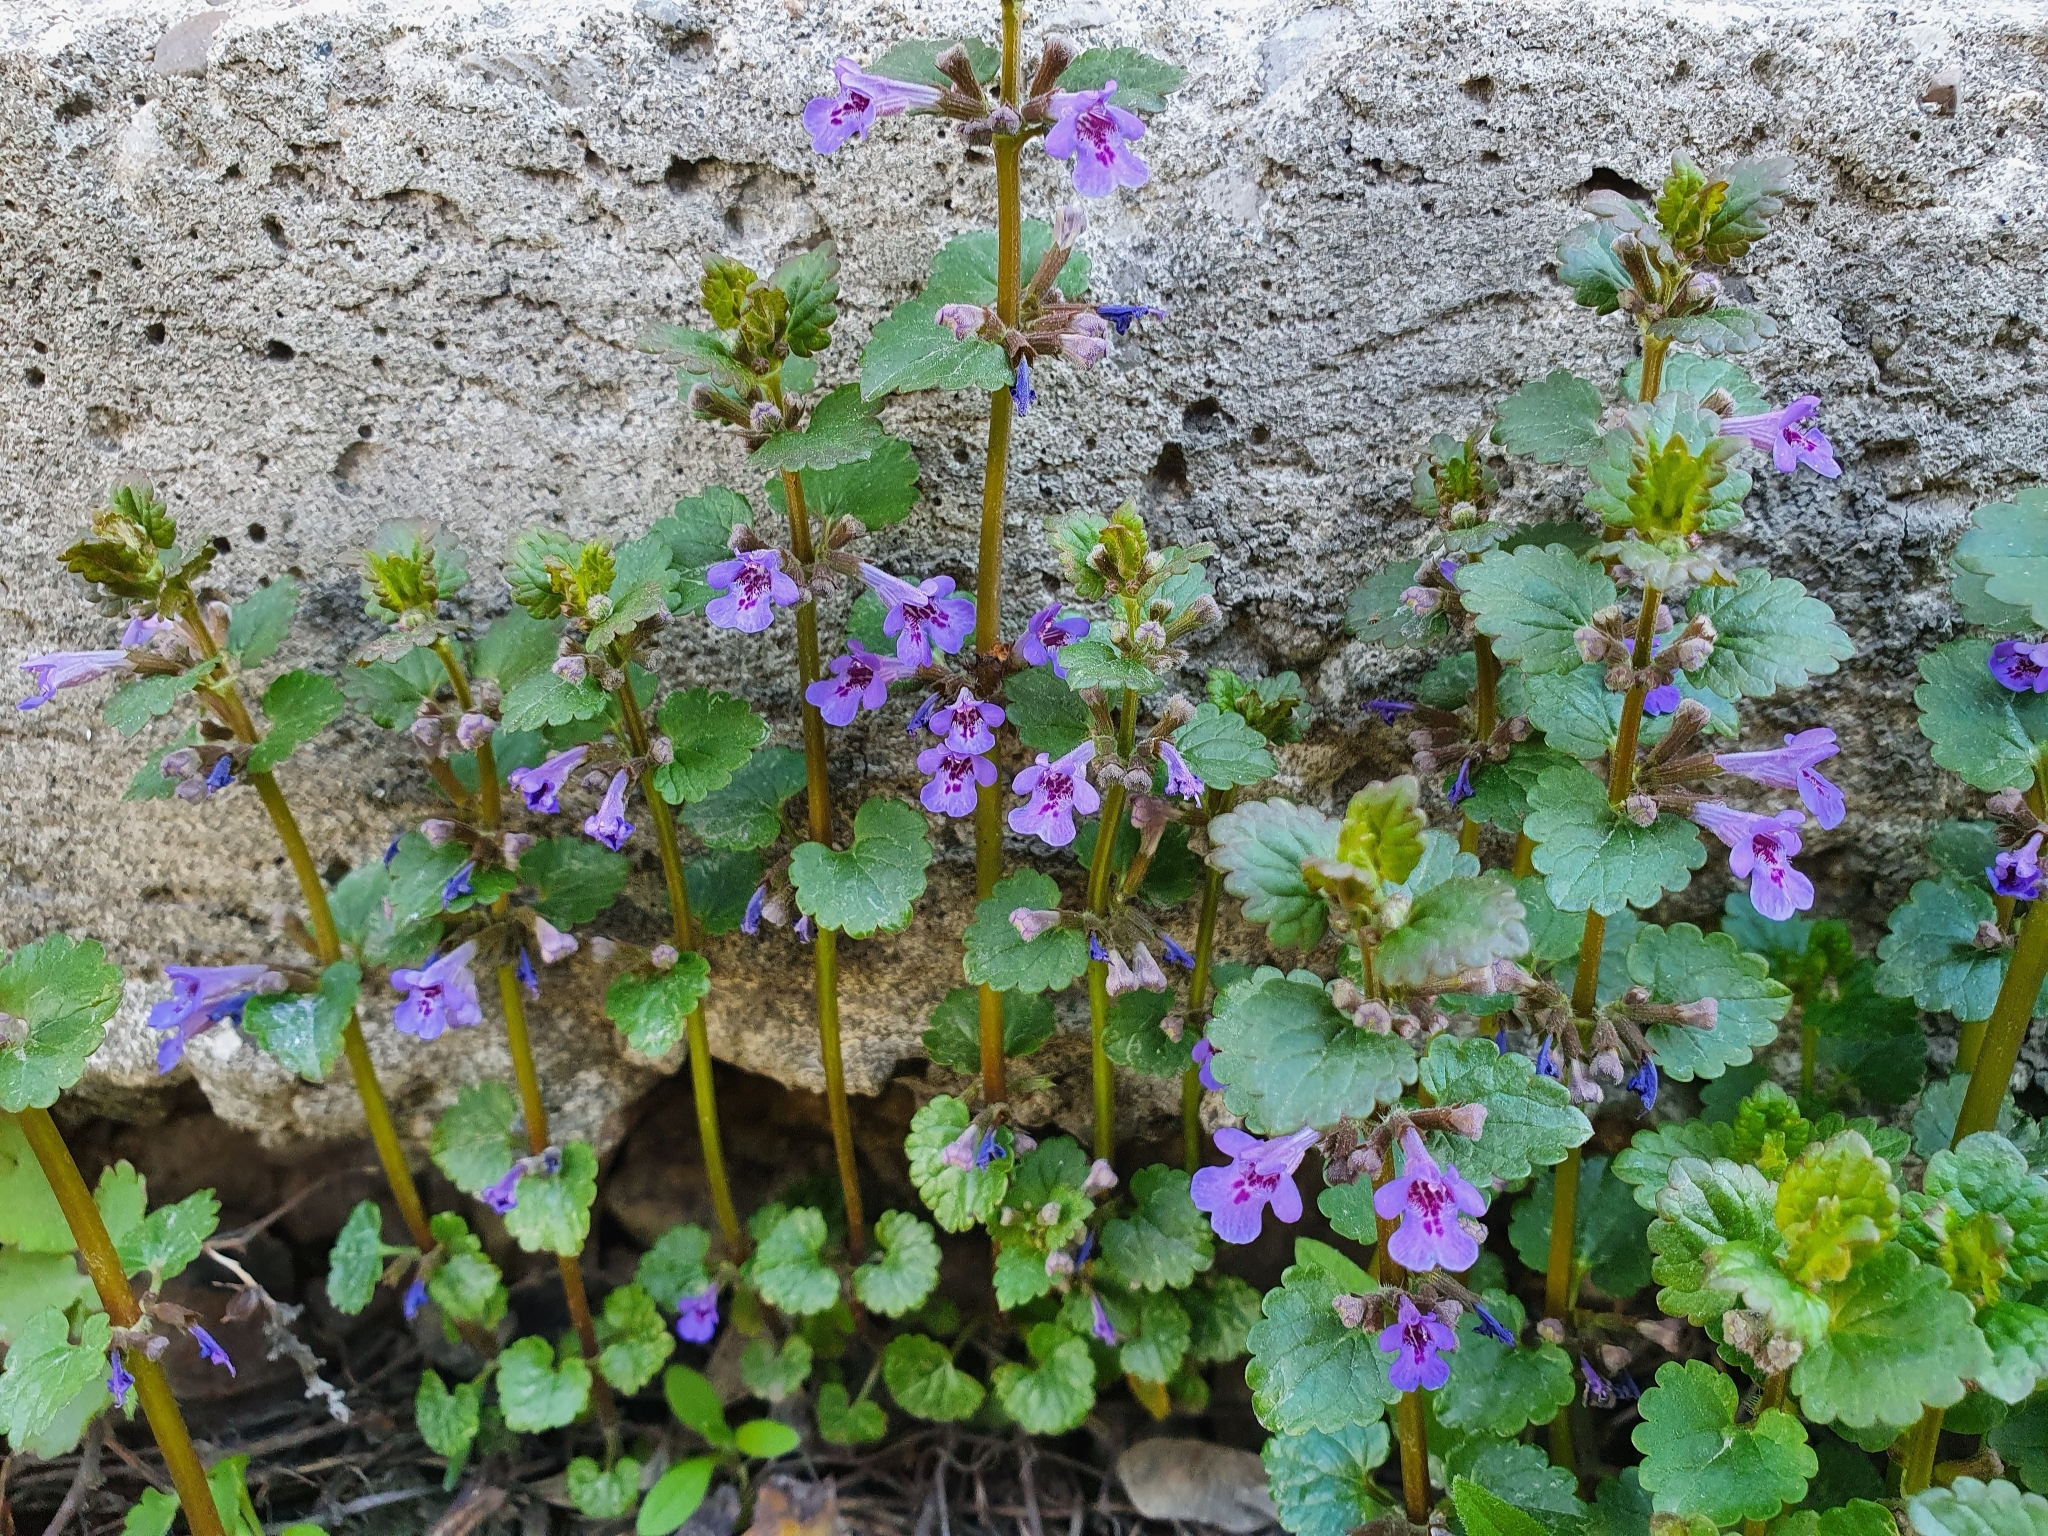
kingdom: Plantae
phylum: Tracheophyta
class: Magnoliopsida
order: Lamiales
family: Lamiaceae
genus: Glechoma
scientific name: Glechoma hederacea
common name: Ground ivy
